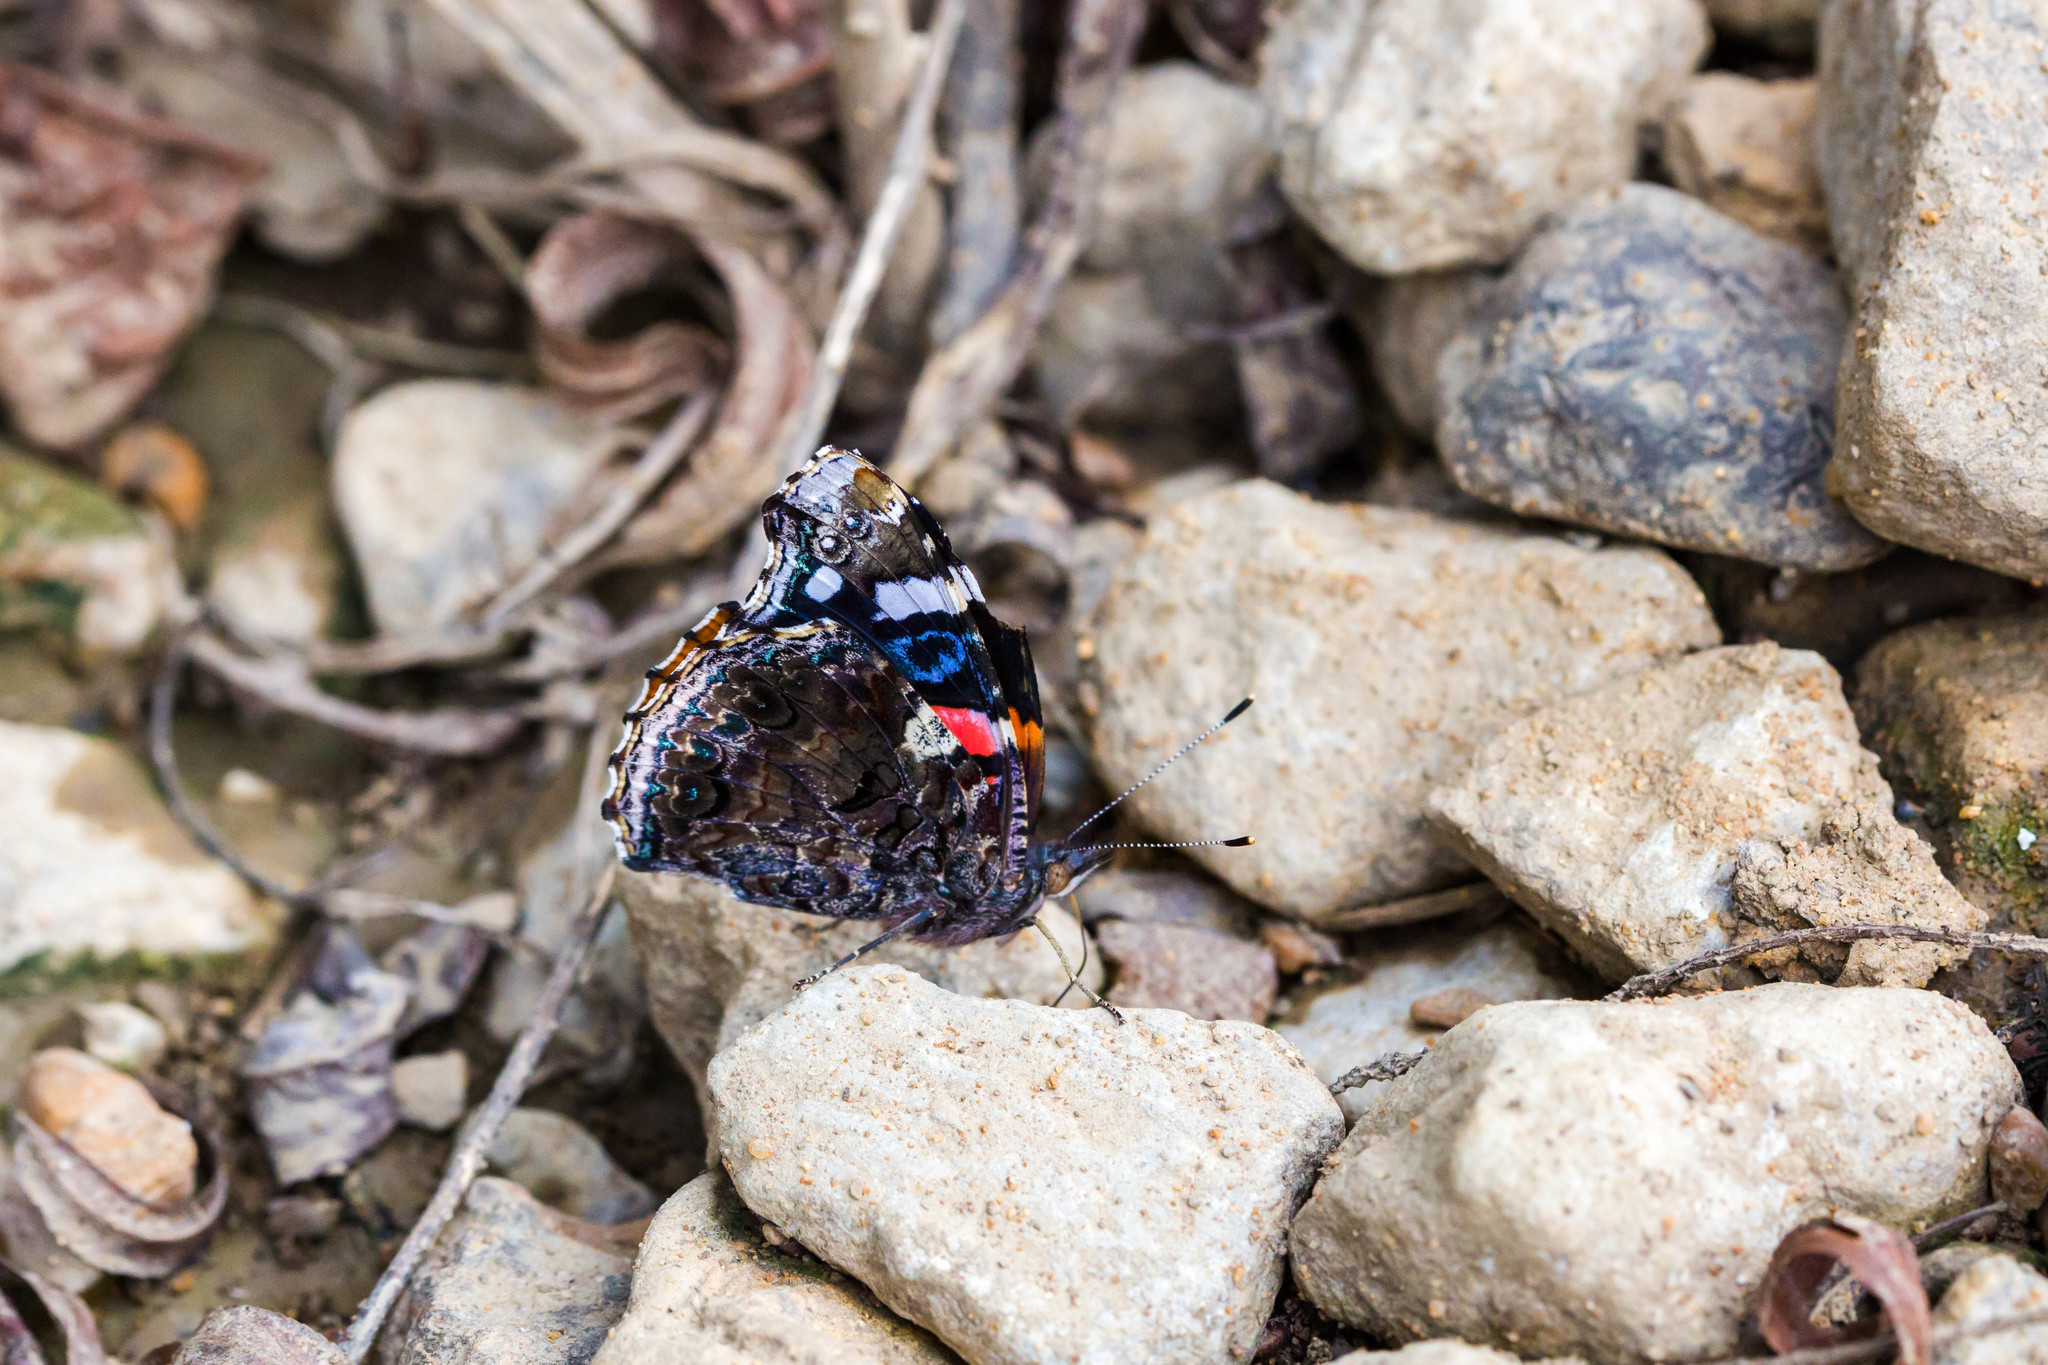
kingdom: Animalia
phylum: Arthropoda
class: Insecta
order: Lepidoptera
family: Nymphalidae
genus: Vanessa
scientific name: Vanessa atalanta
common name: Red admiral
